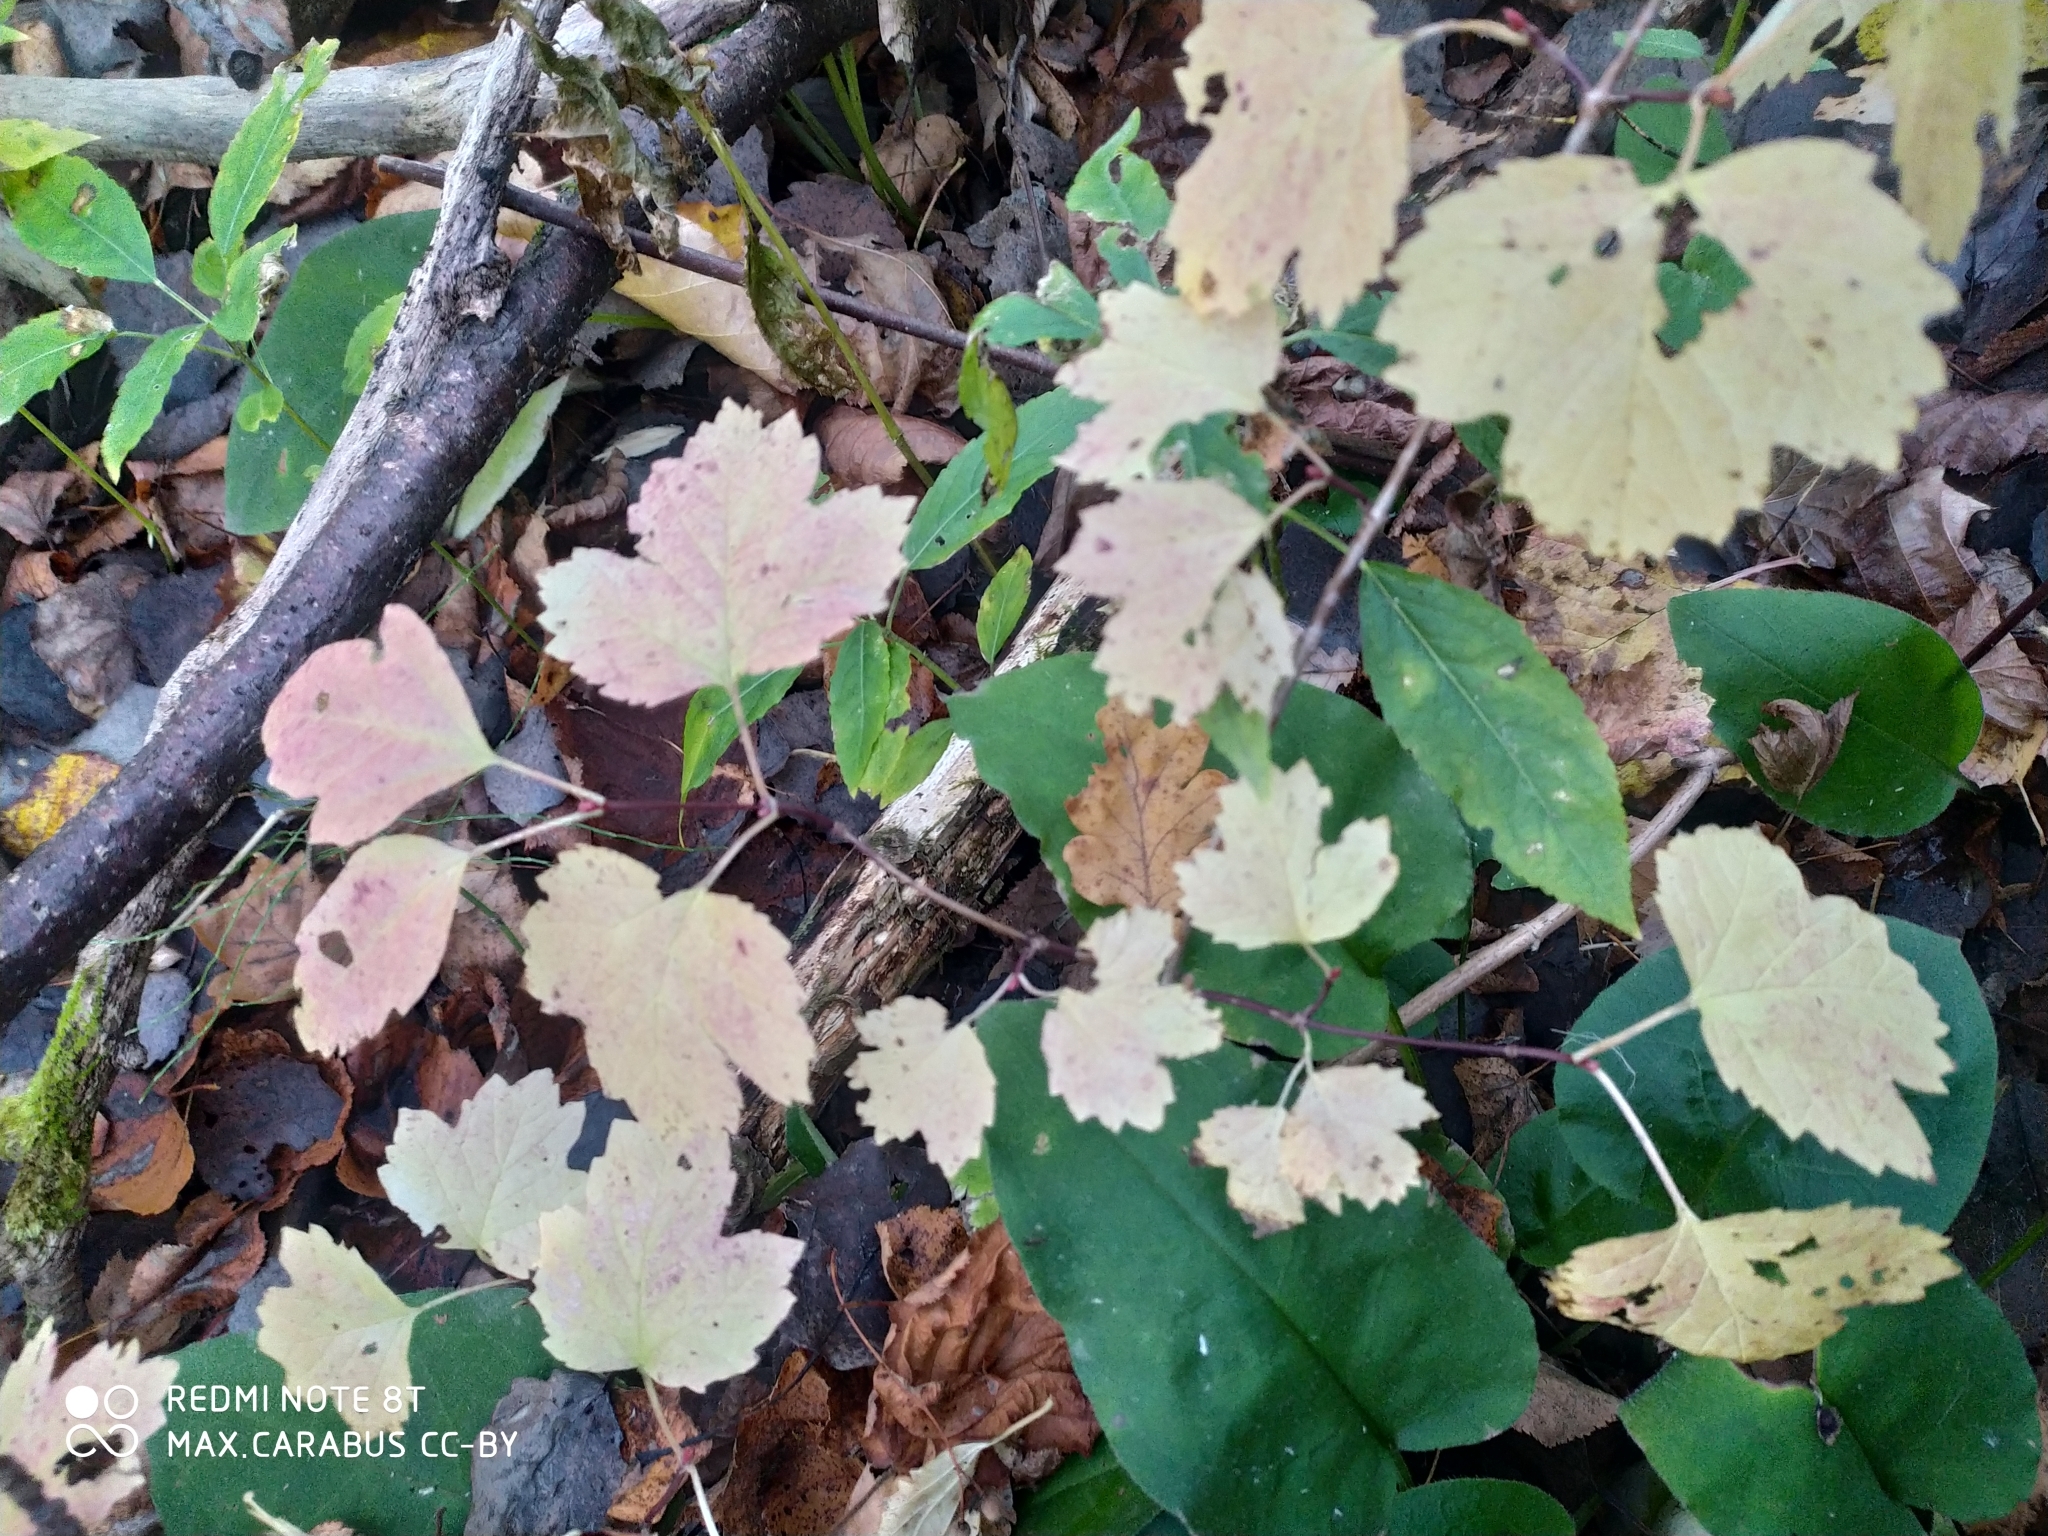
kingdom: Plantae
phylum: Tracheophyta
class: Magnoliopsida
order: Dipsacales
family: Viburnaceae
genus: Viburnum
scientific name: Viburnum opulus
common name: Guelder-rose
